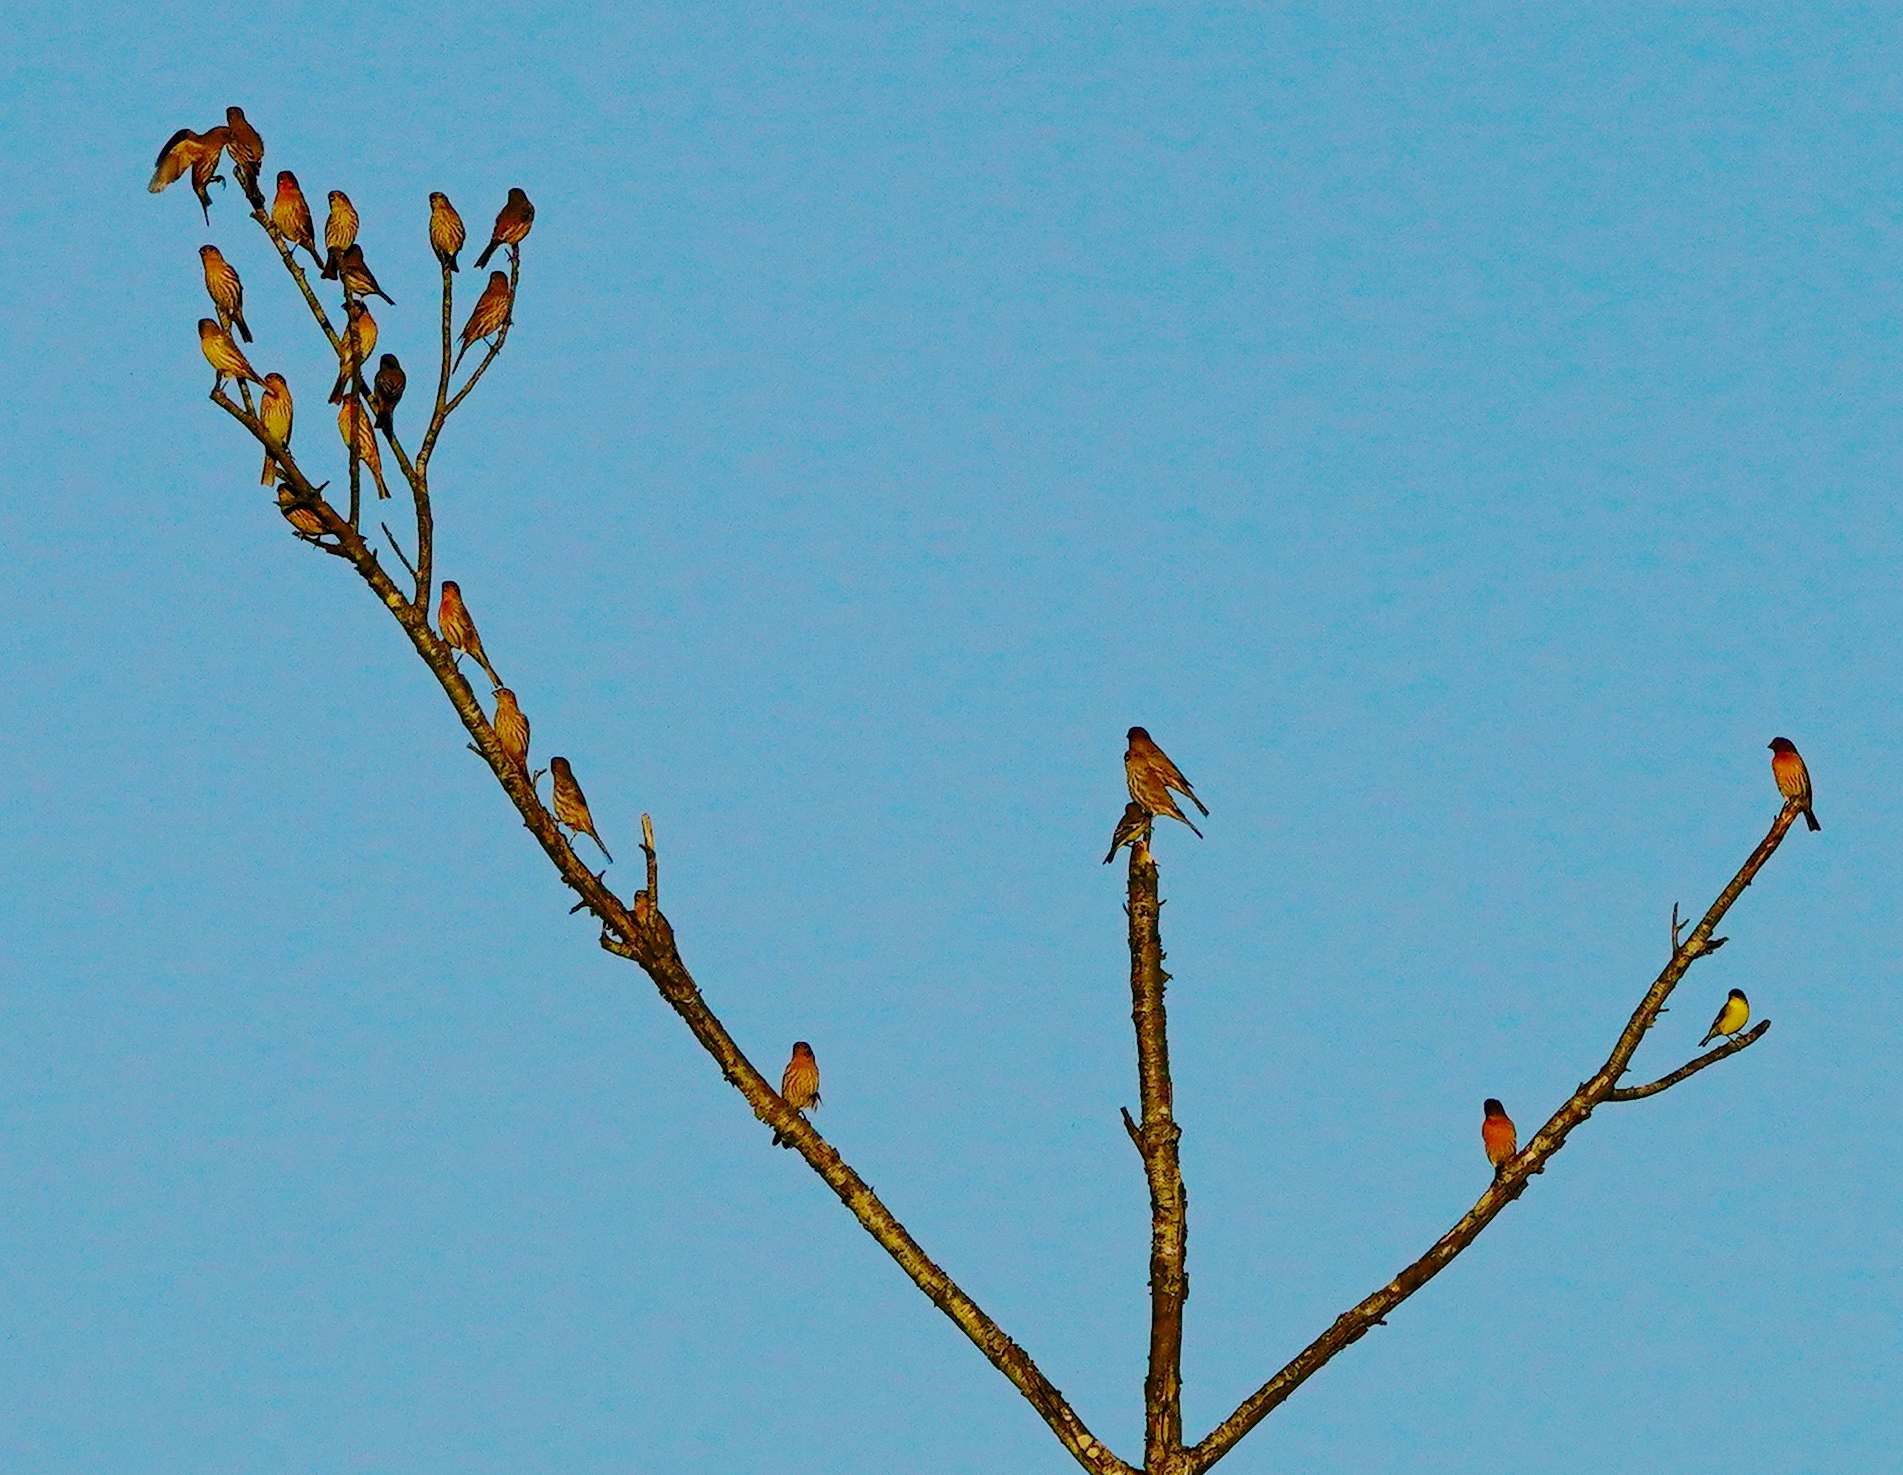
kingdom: Animalia
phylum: Chordata
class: Aves
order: Passeriformes
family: Fringillidae
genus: Haemorhous
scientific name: Haemorhous mexicanus
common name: House finch
